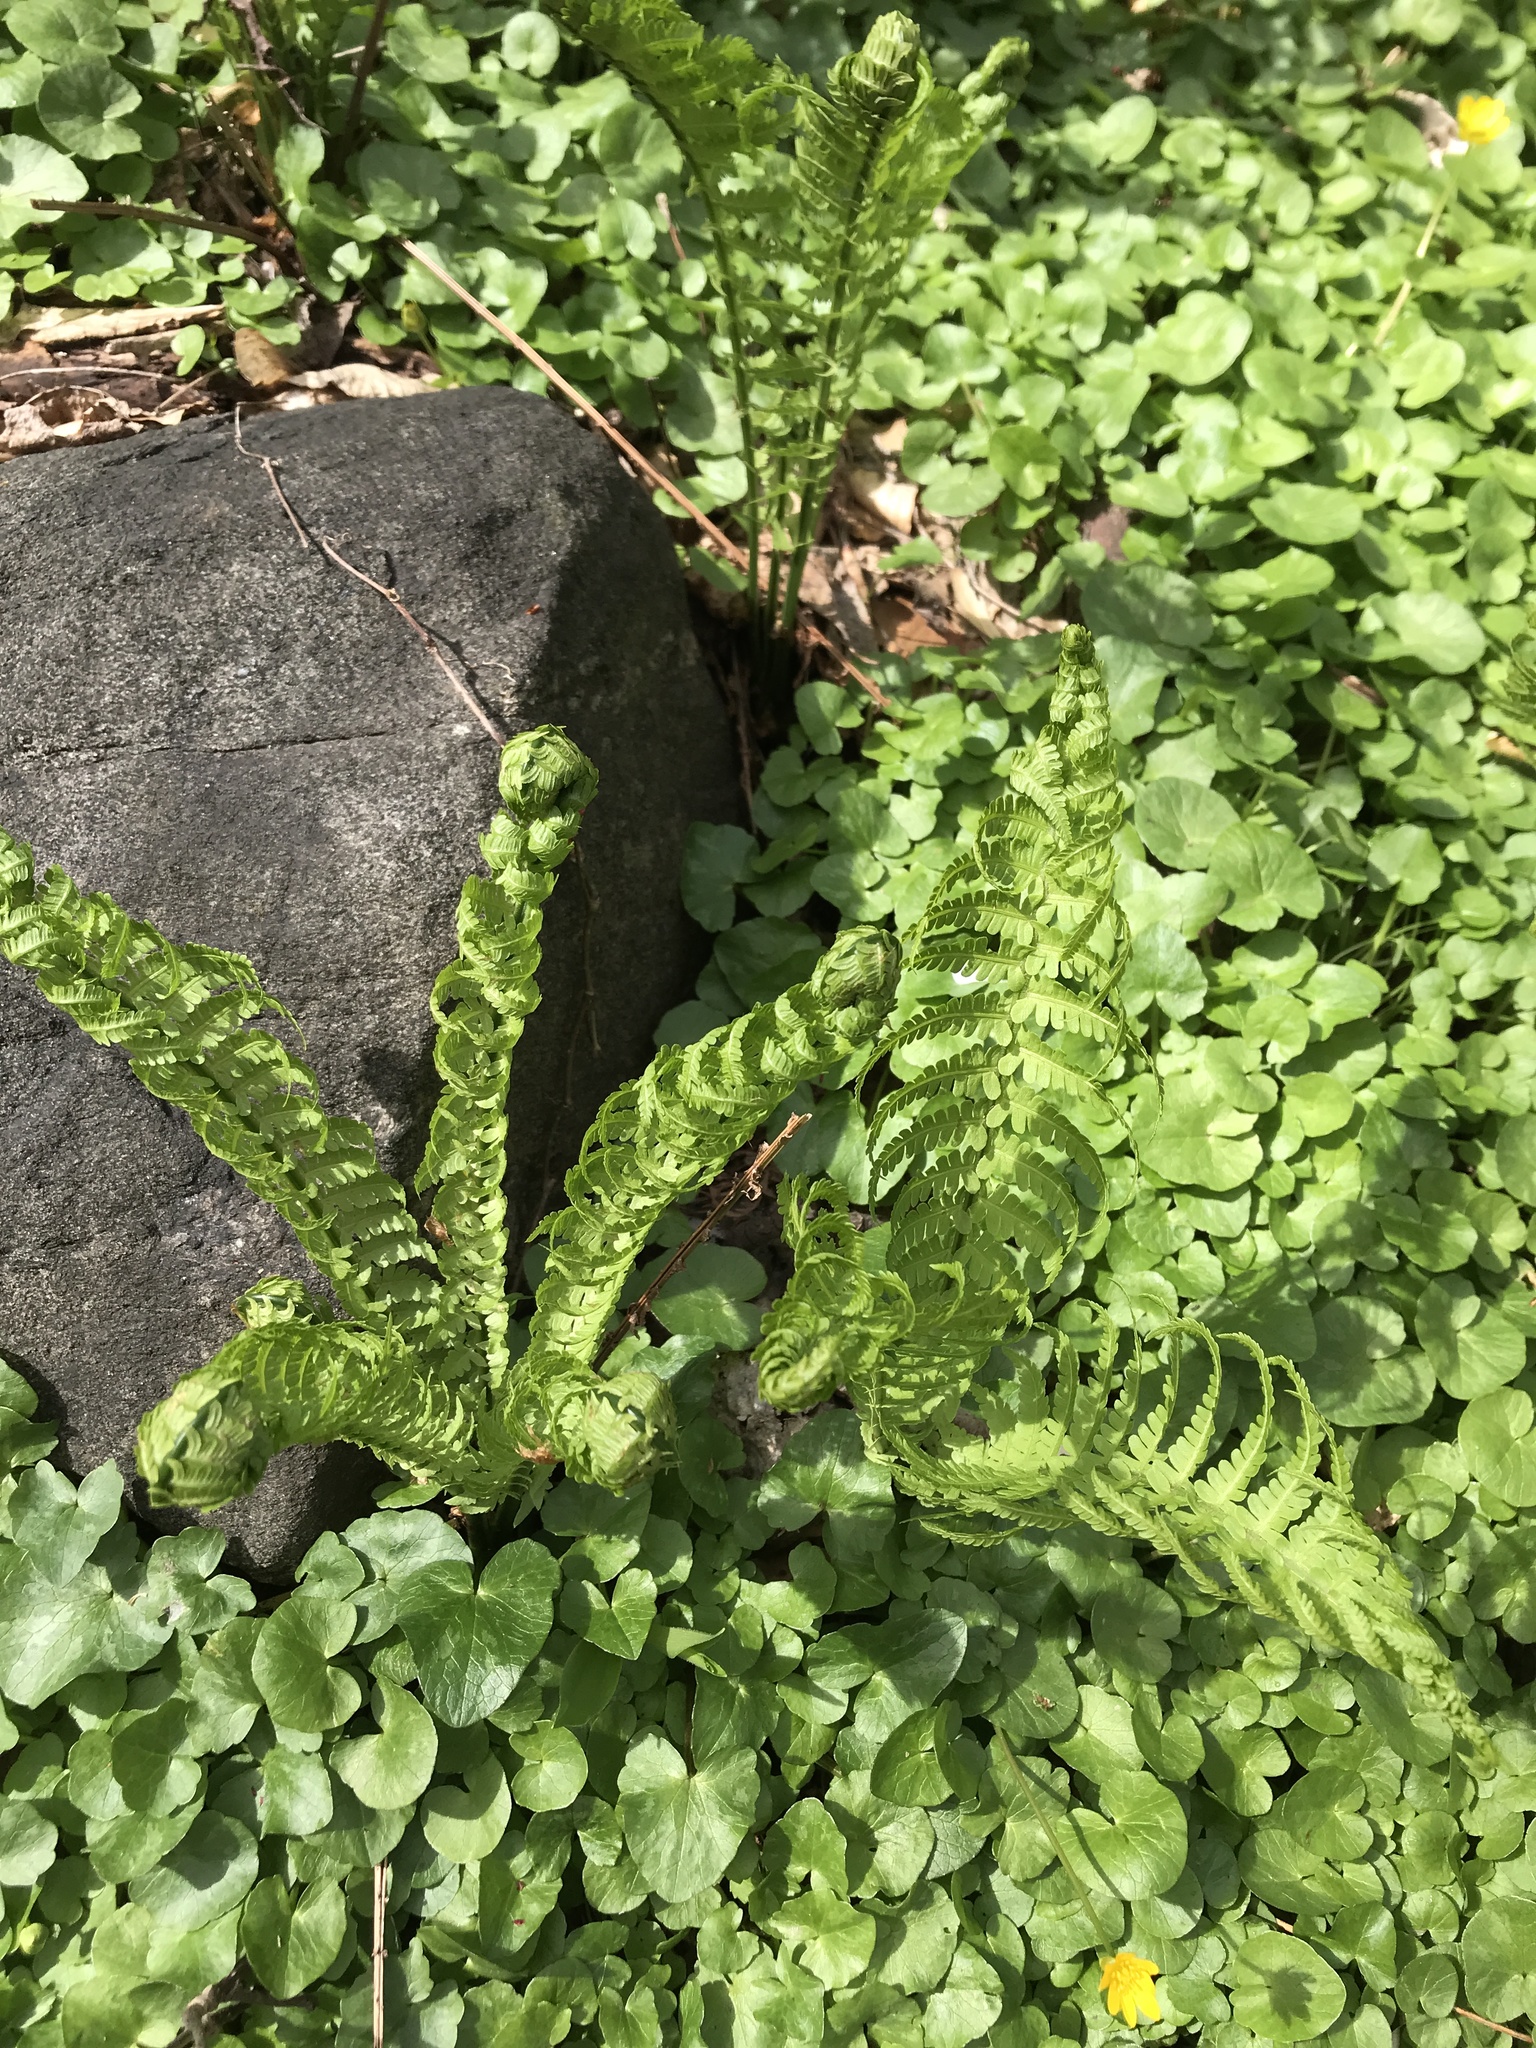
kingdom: Plantae
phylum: Tracheophyta
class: Polypodiopsida
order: Polypodiales
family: Onocleaceae
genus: Matteuccia
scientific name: Matteuccia struthiopteris
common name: Ostrich fern
